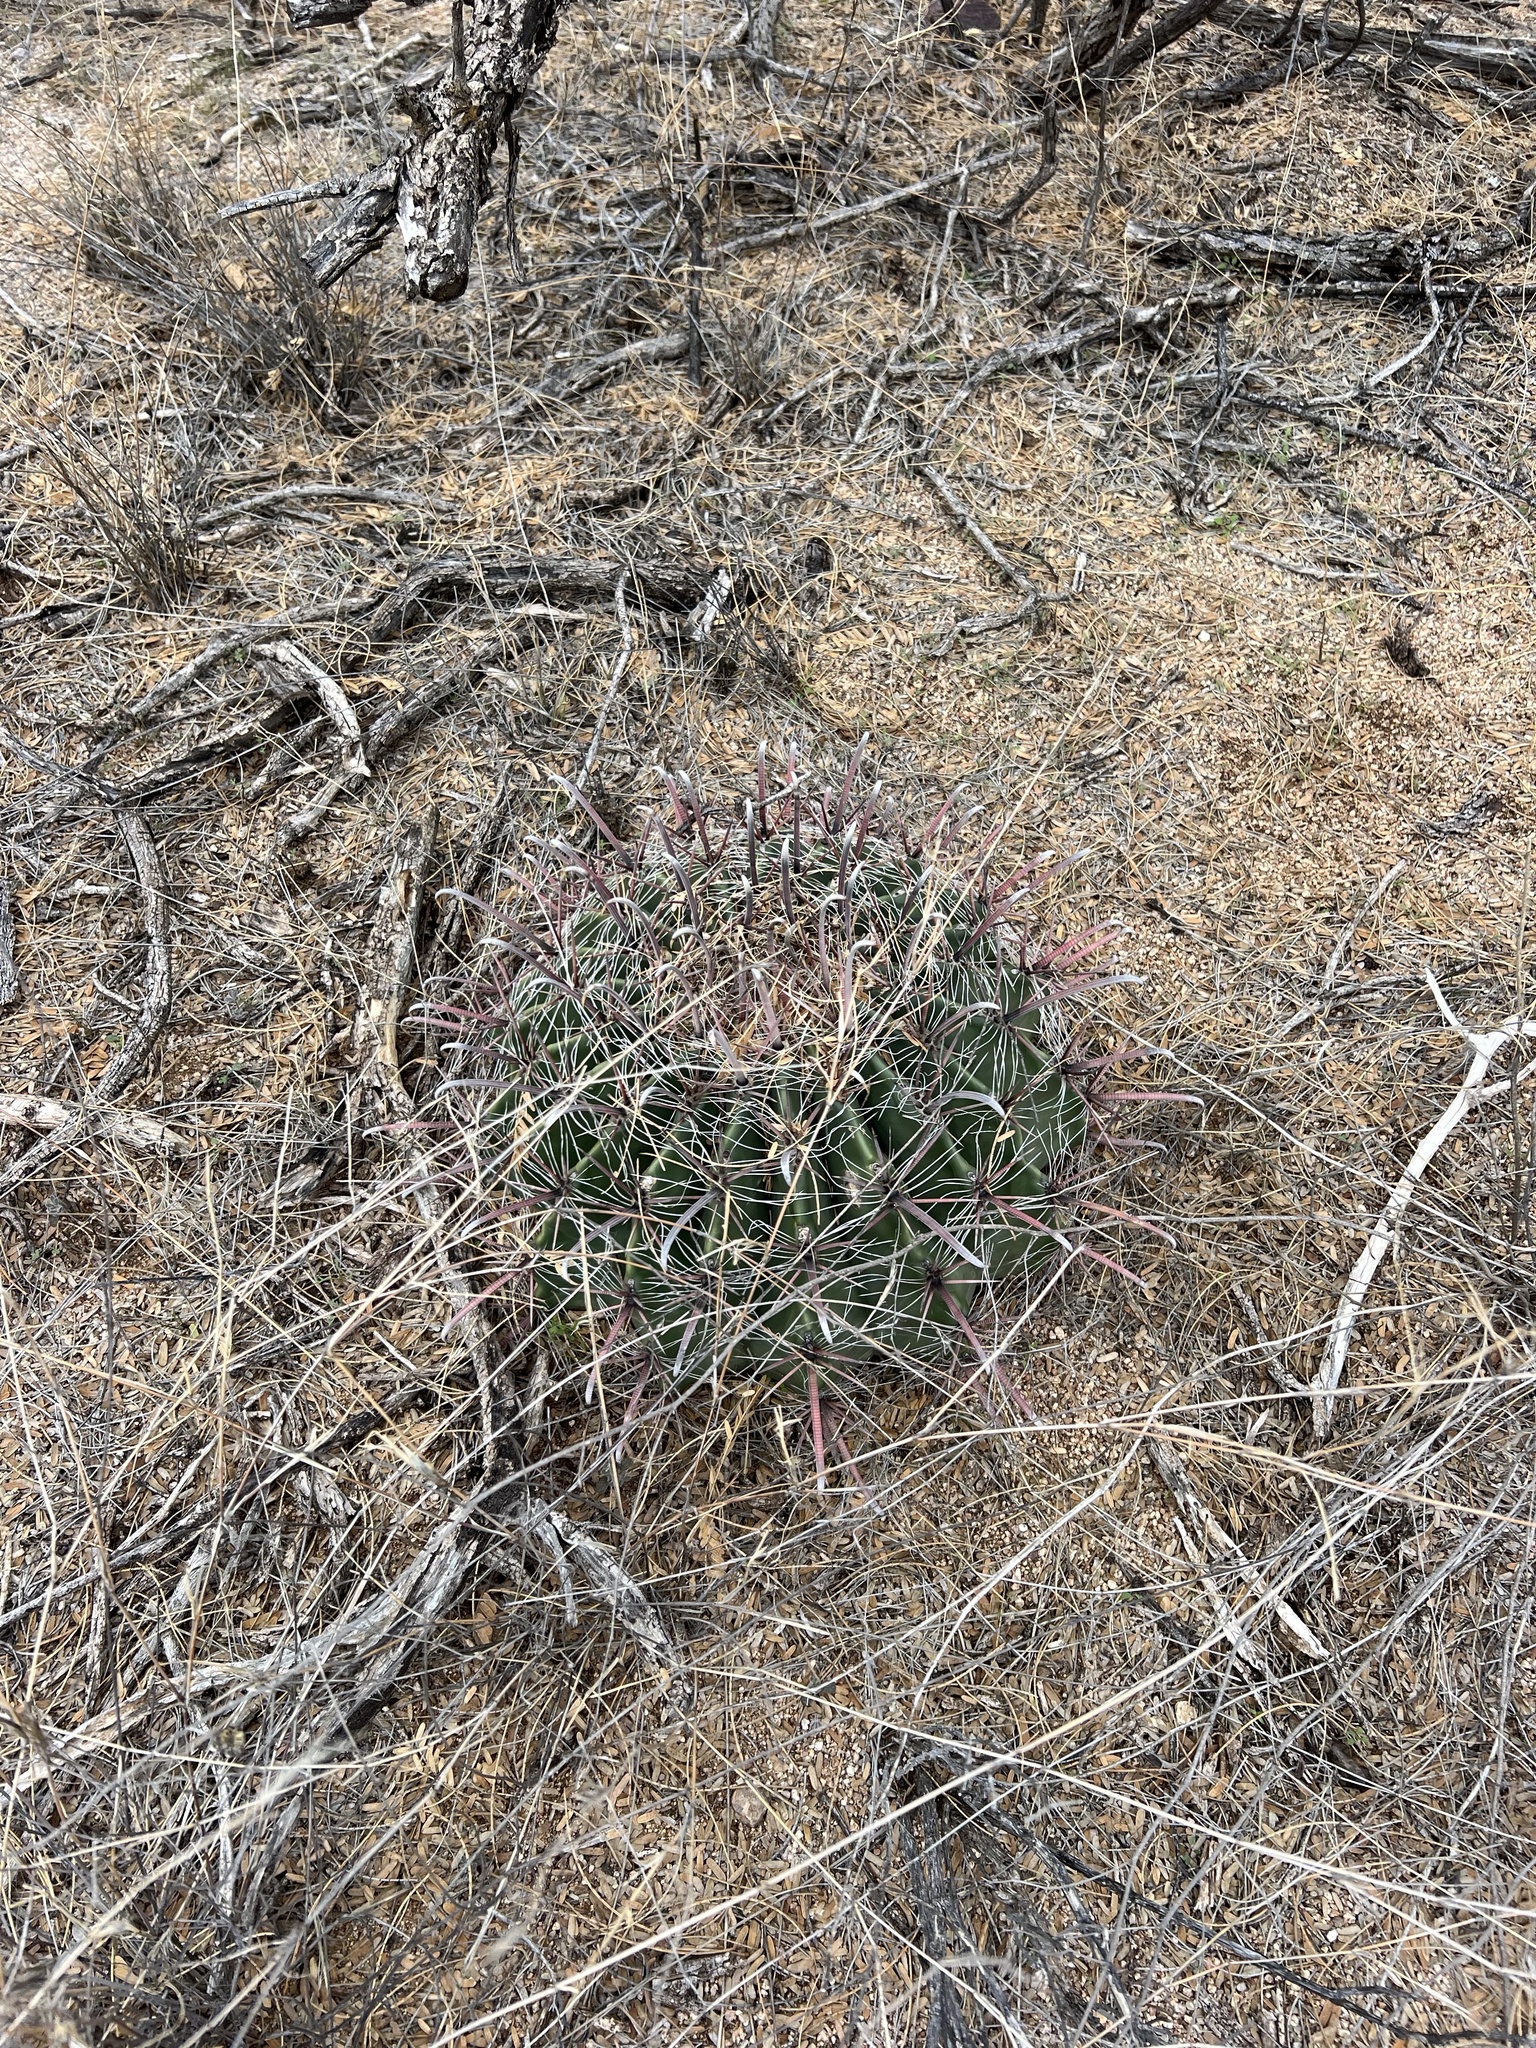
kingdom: Plantae
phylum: Tracheophyta
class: Magnoliopsida
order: Caryophyllales
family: Cactaceae
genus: Ferocactus
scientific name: Ferocactus wislizeni
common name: Candy barrel cactus
